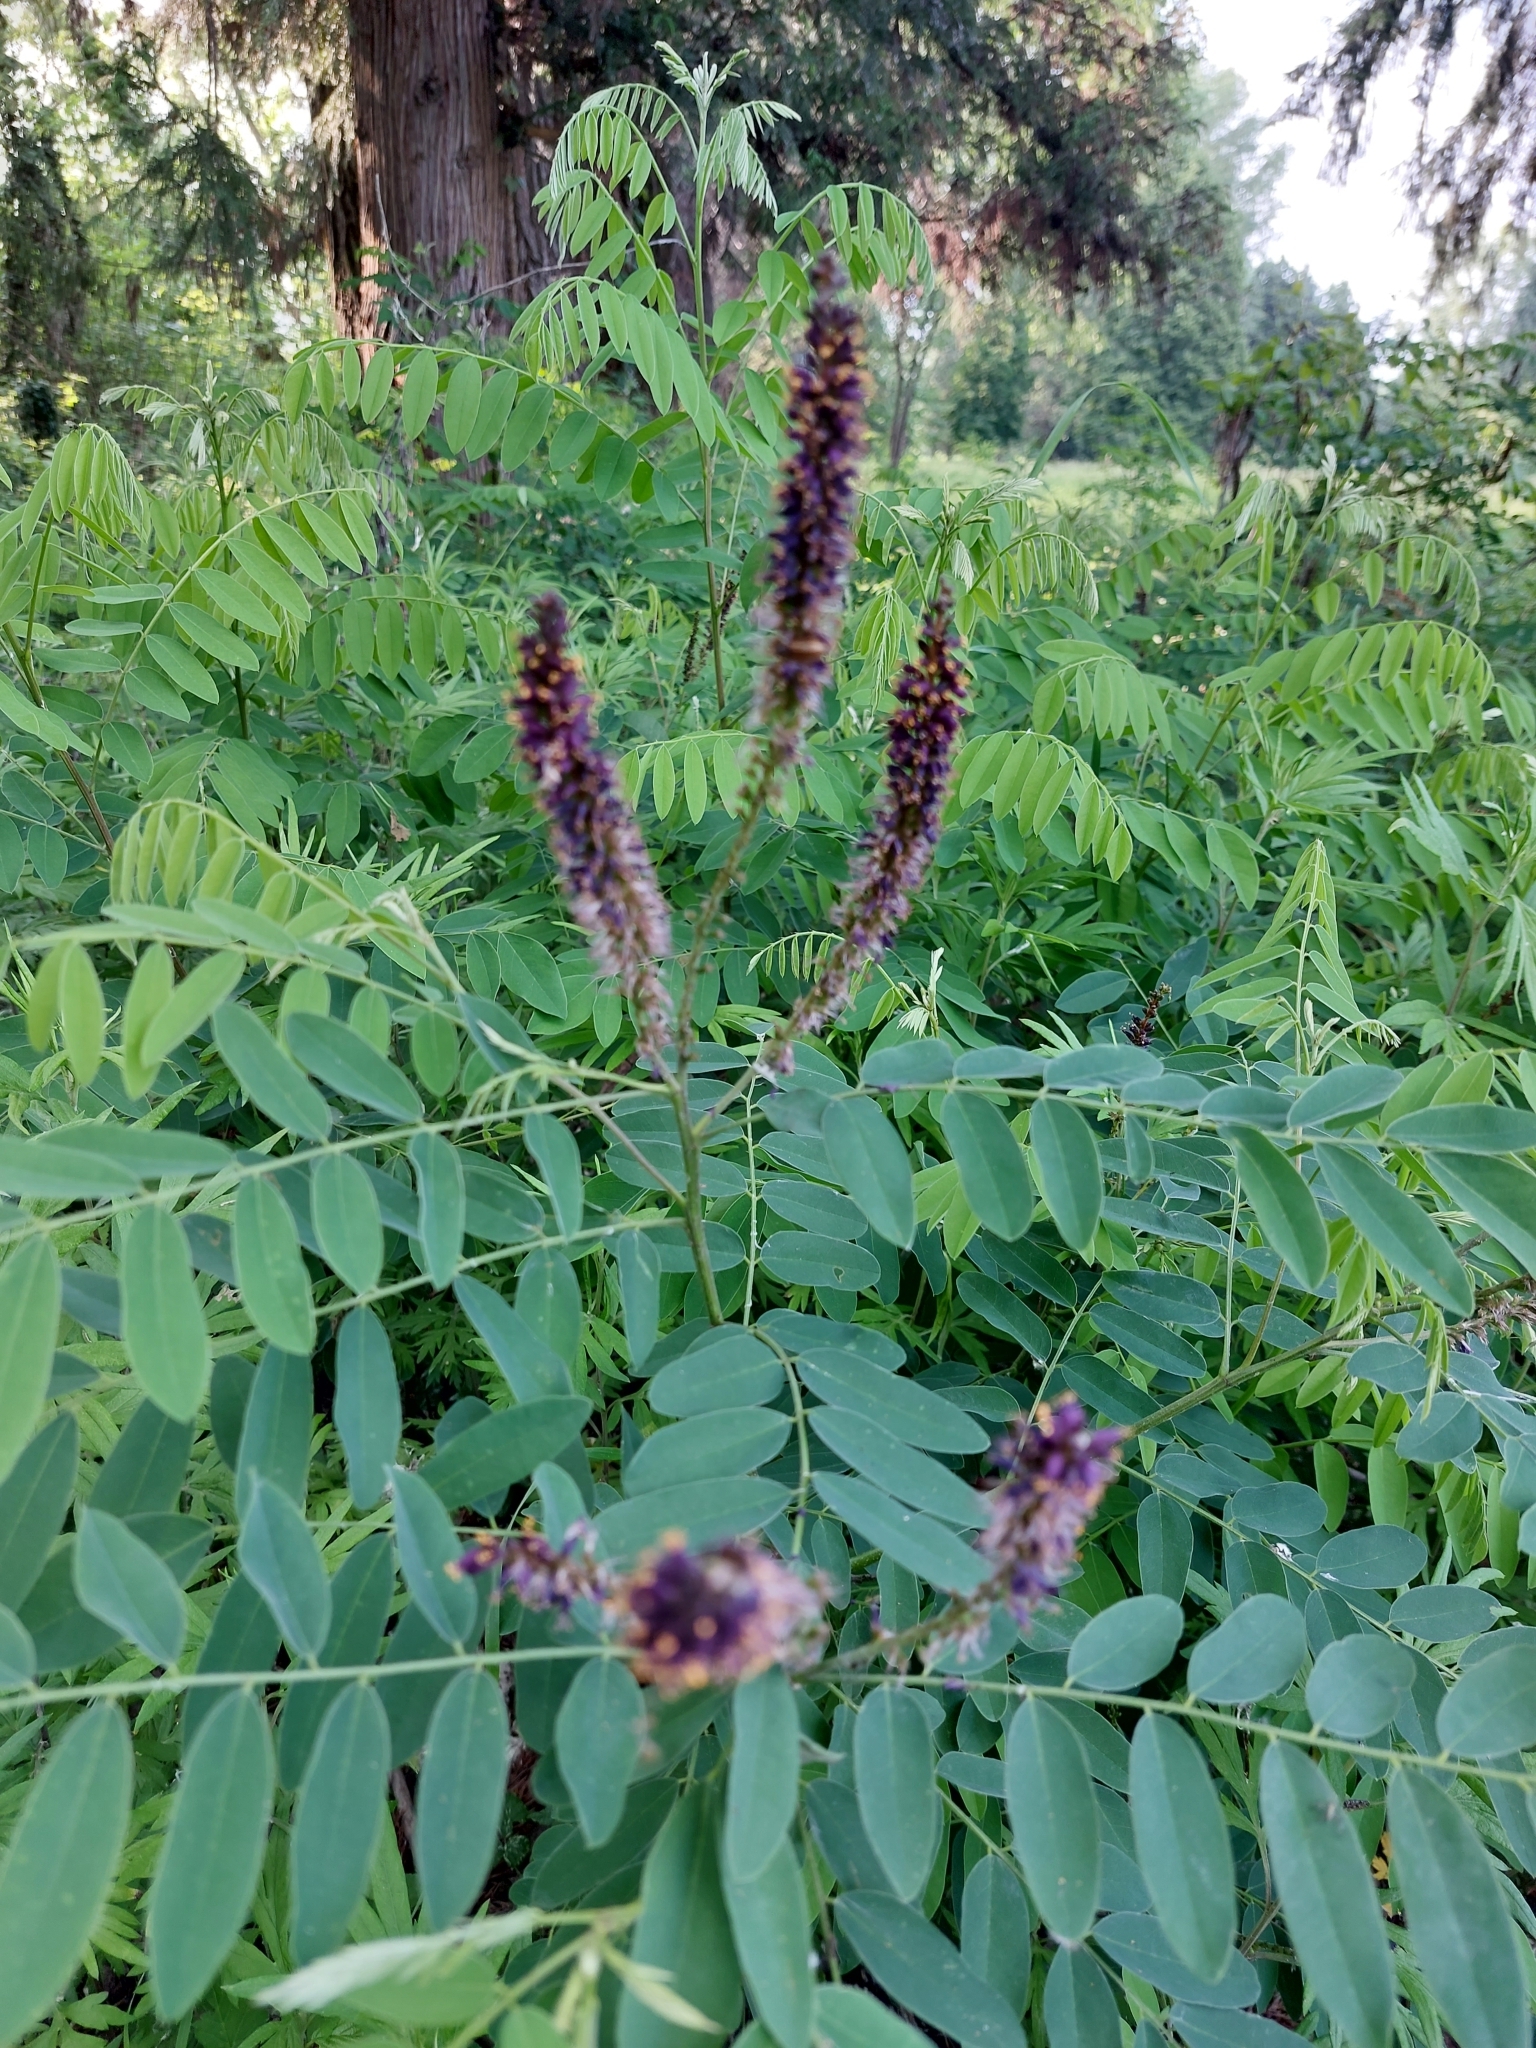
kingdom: Plantae
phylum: Tracheophyta
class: Magnoliopsida
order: Fabales
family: Fabaceae
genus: Amorpha
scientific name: Amorpha fruticosa
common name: False indigo
